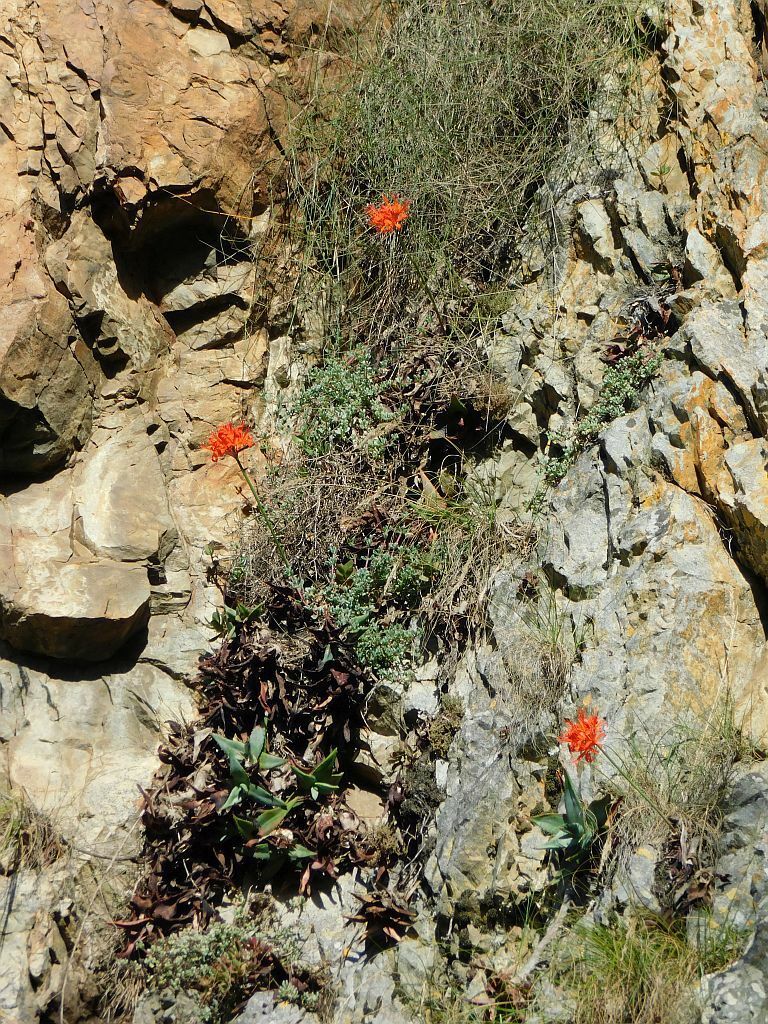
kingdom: Plantae
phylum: Tracheophyta
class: Liliopsida
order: Asparagales
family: Amaryllidaceae
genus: Nerine
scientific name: Nerine sarniensis
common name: Guernsey-lily
